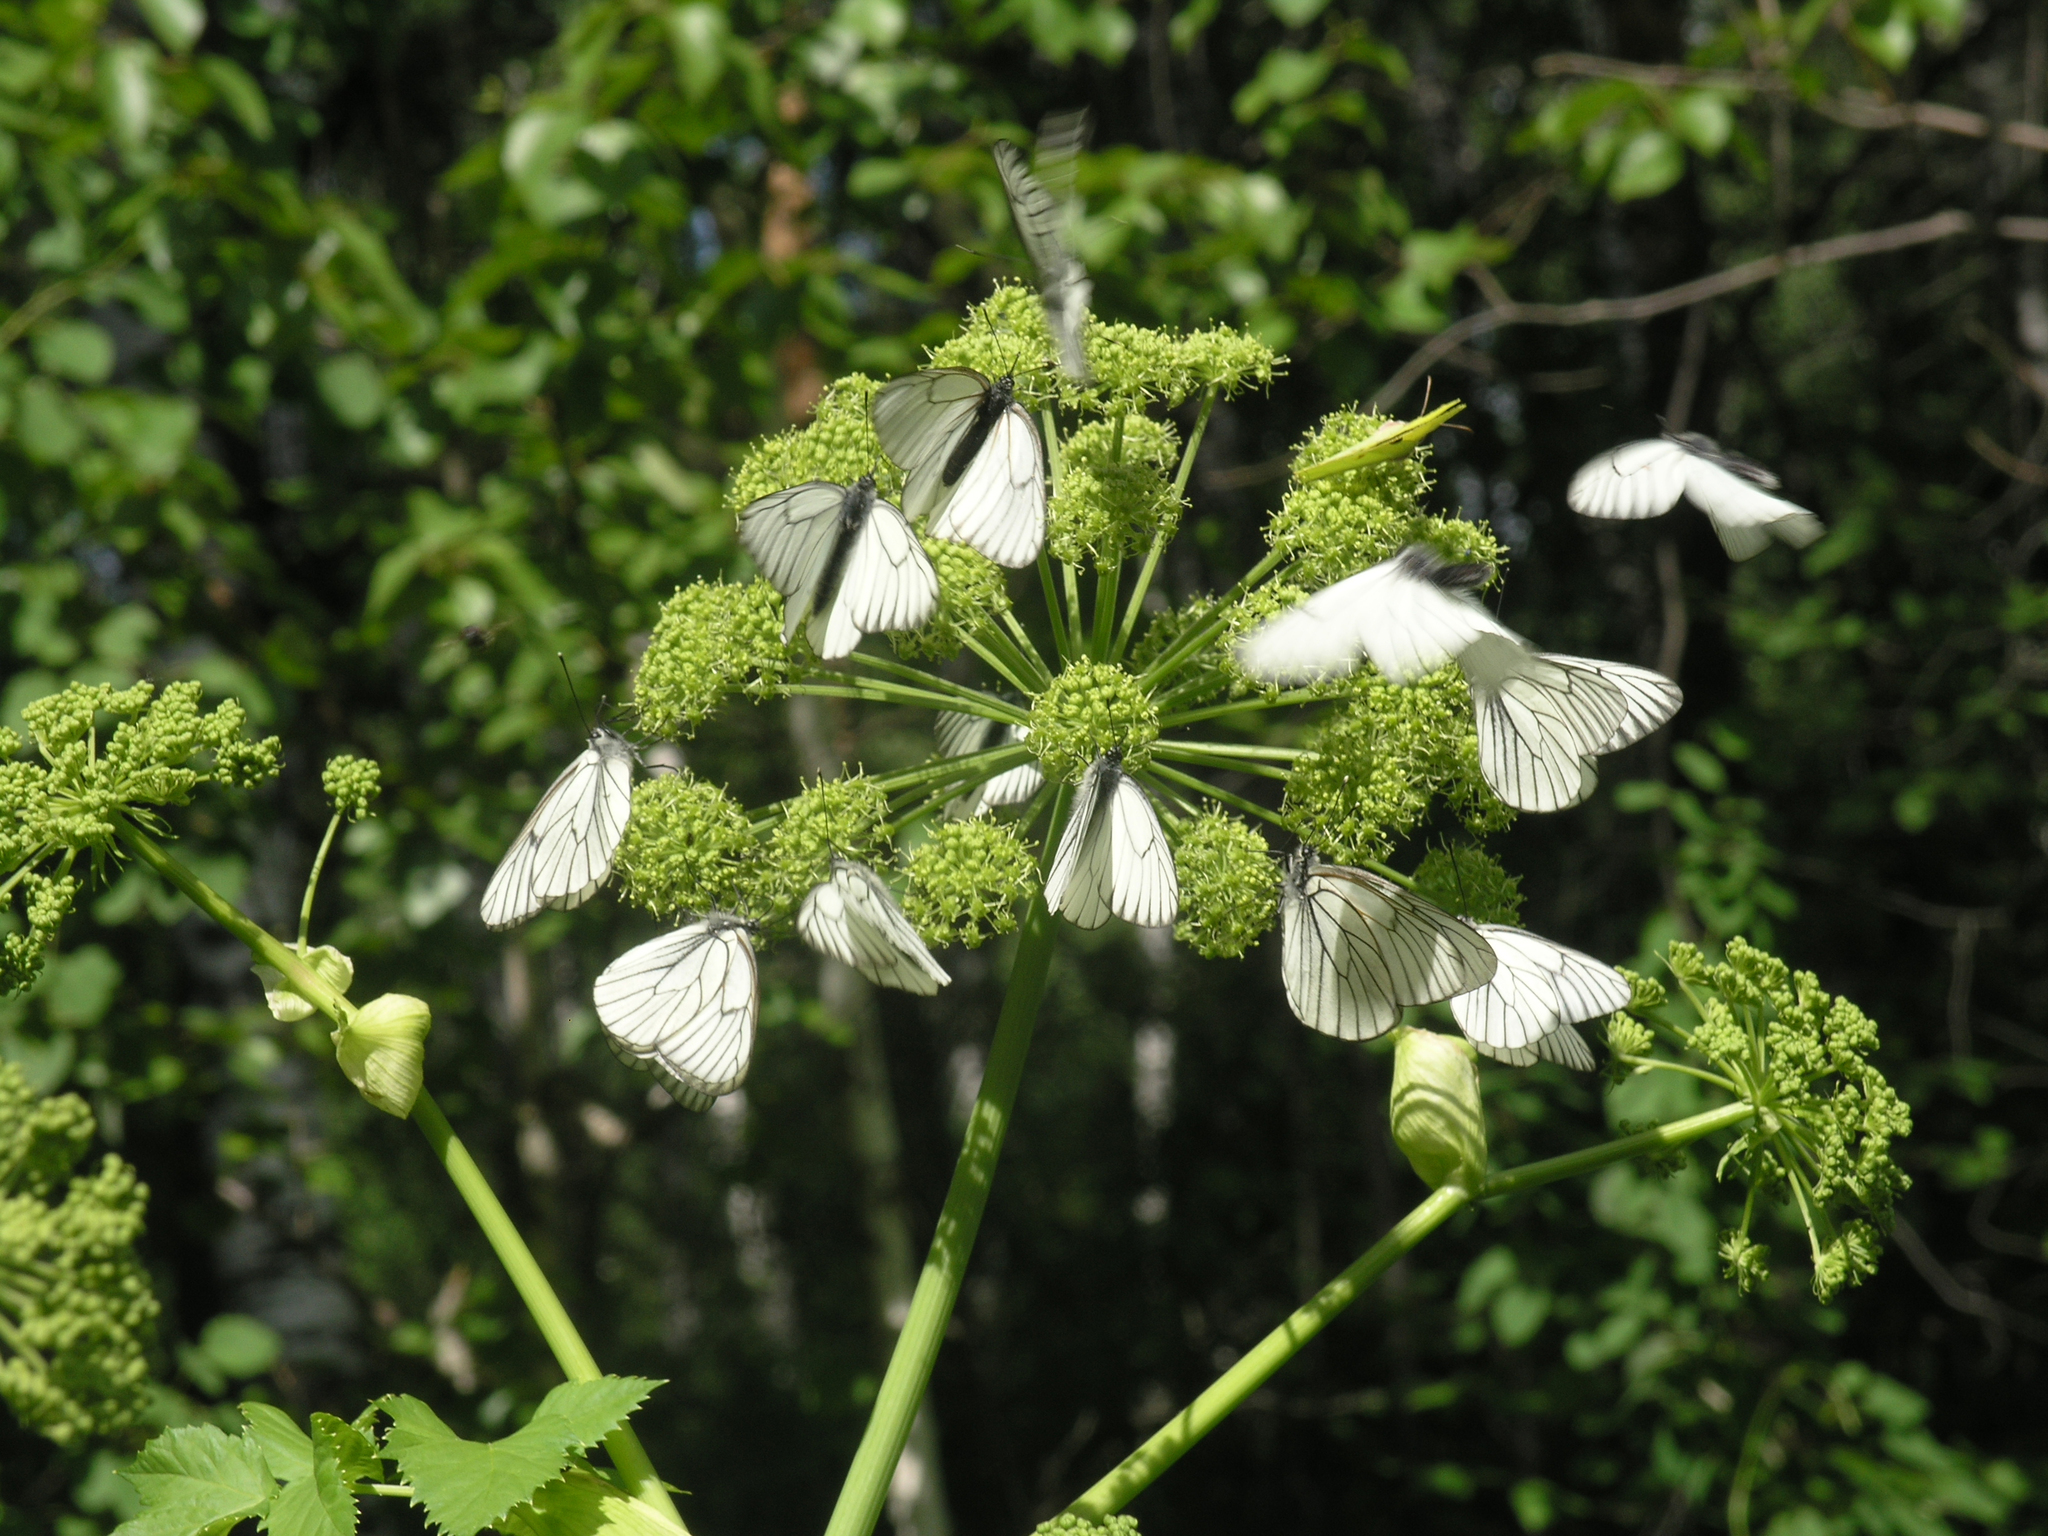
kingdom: Plantae
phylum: Tracheophyta
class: Magnoliopsida
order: Apiales
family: Apiaceae
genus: Angelica
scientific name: Angelica decurrens
